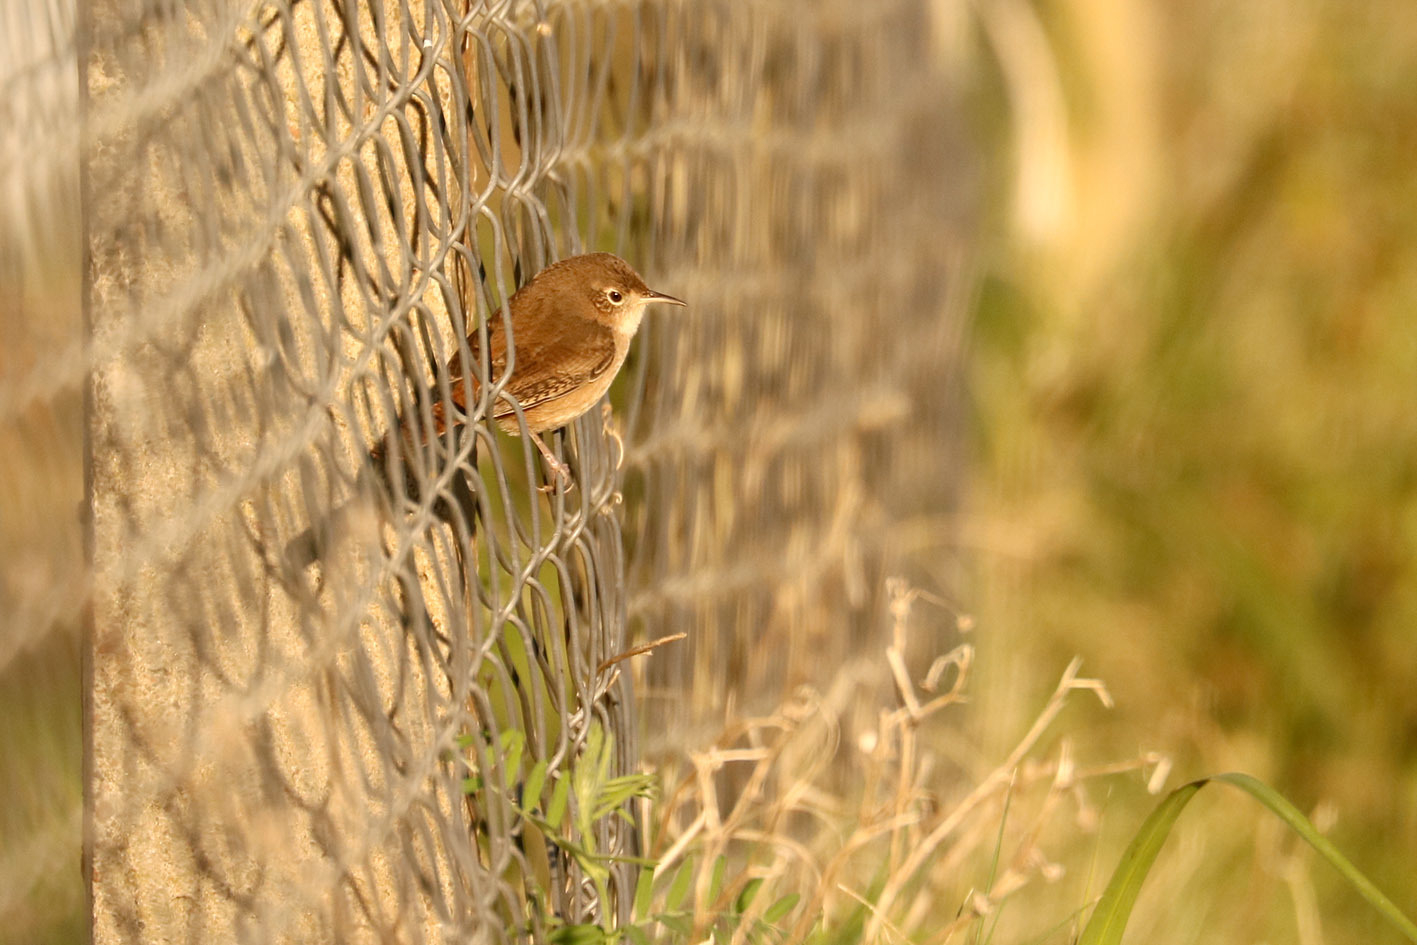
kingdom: Animalia
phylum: Chordata
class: Aves
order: Passeriformes
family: Troglodytidae
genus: Troglodytes
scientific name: Troglodytes aedon
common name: House wren
